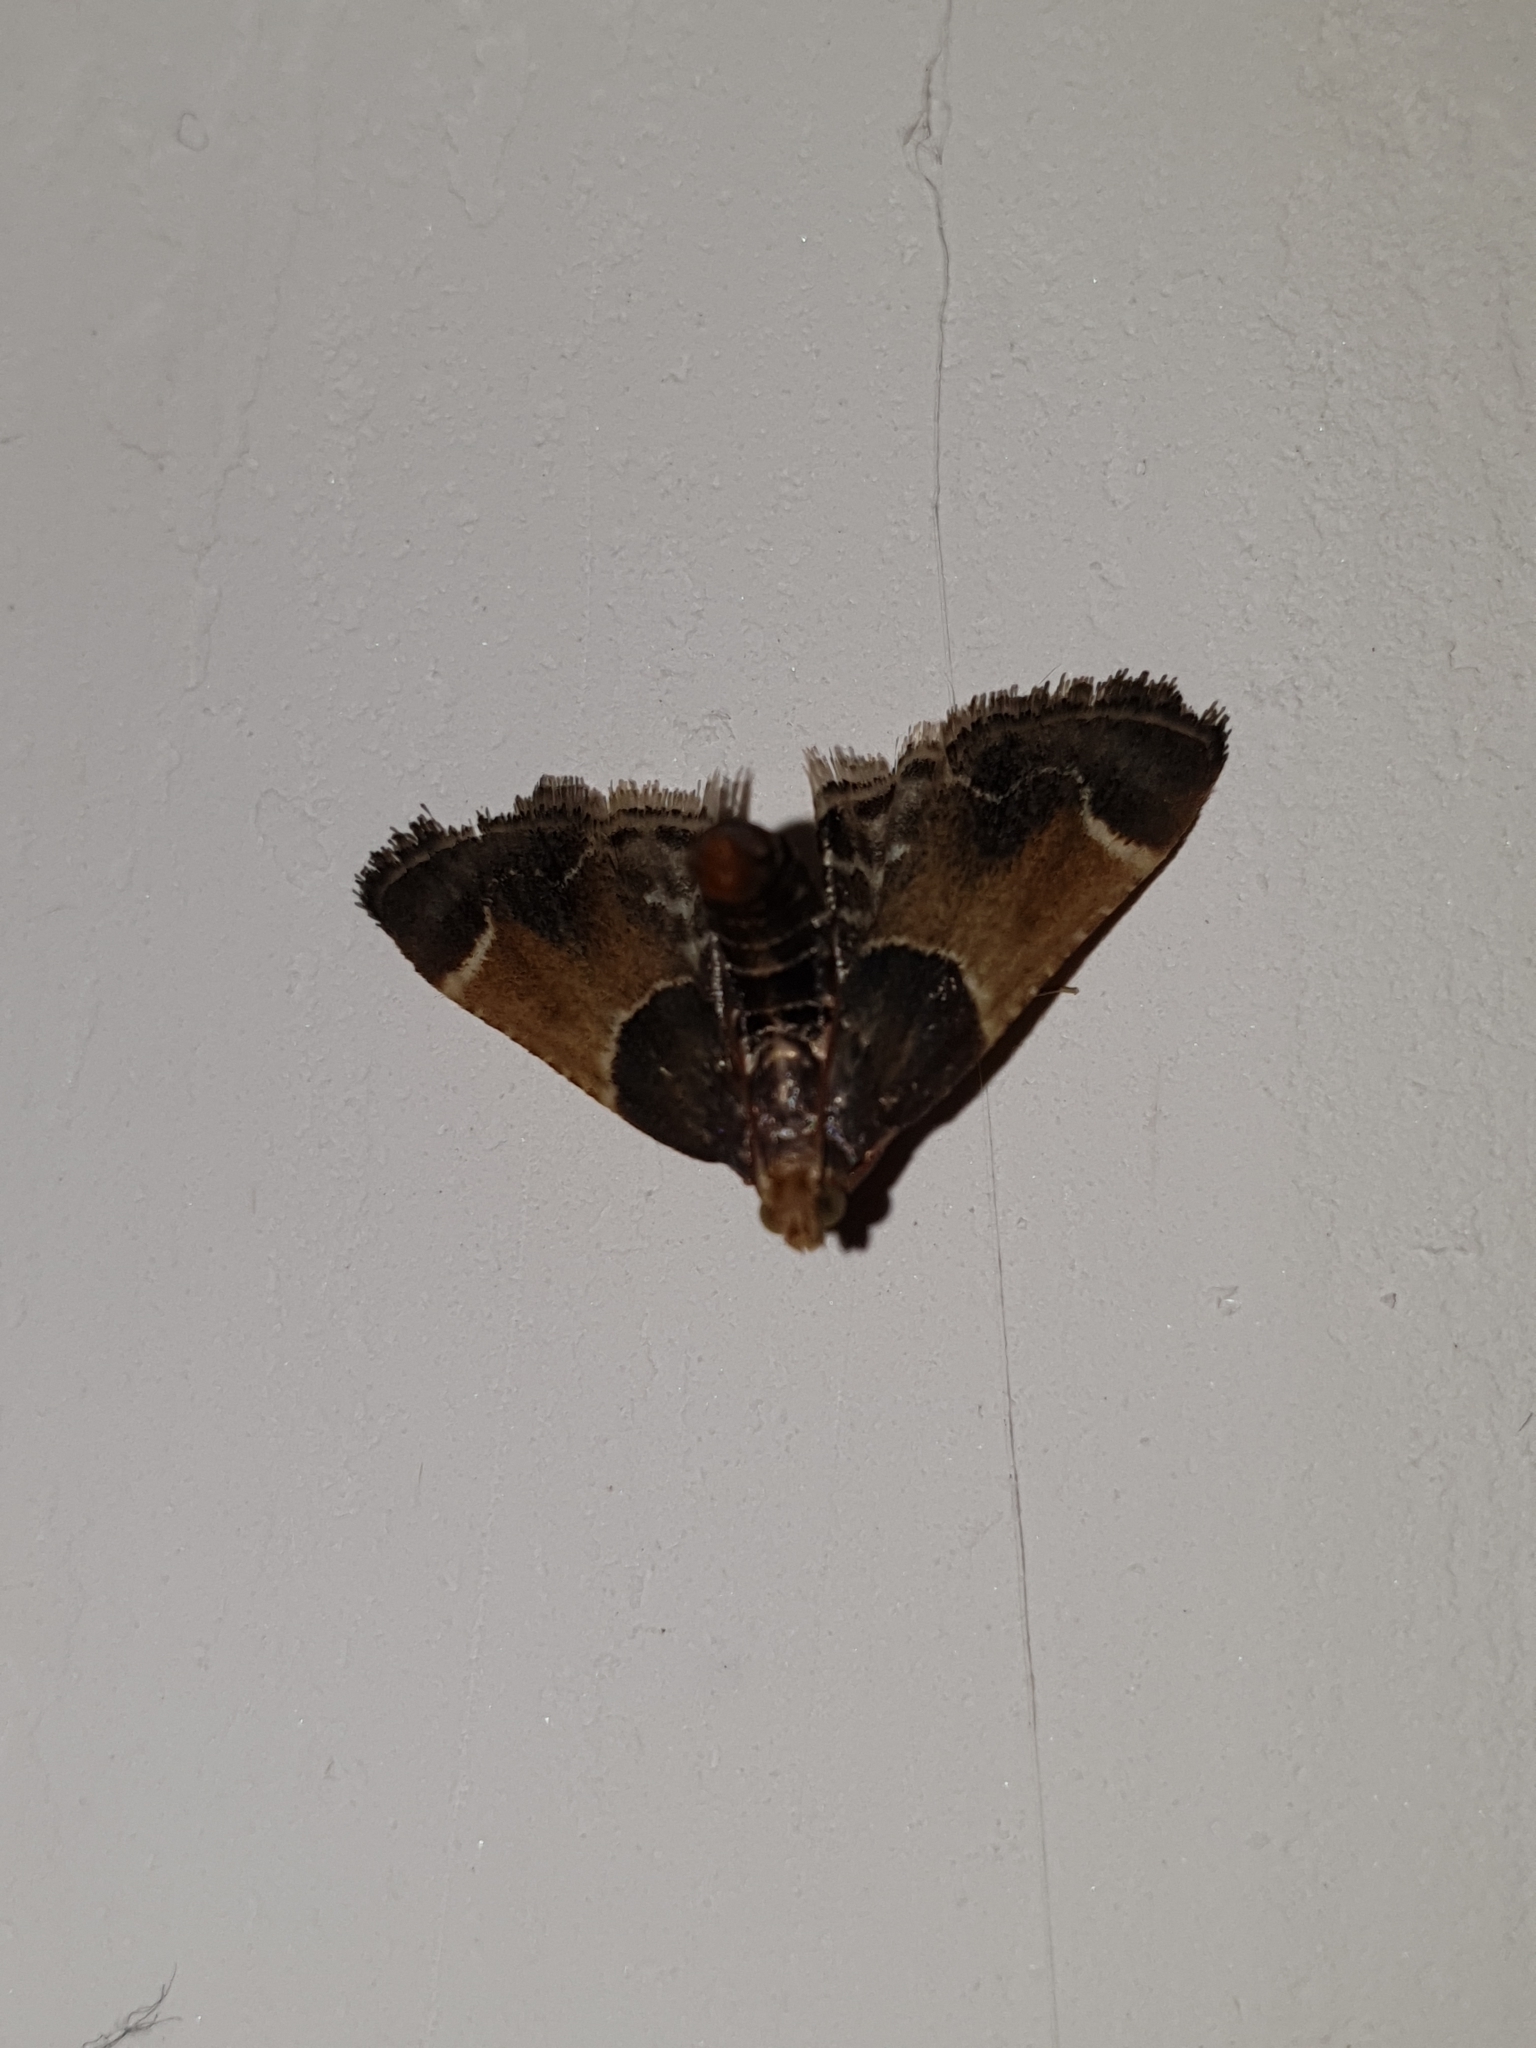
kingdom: Animalia
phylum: Arthropoda
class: Insecta
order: Lepidoptera
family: Pyralidae
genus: Pyralis
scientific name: Pyralis farinalis
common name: Meal moth
